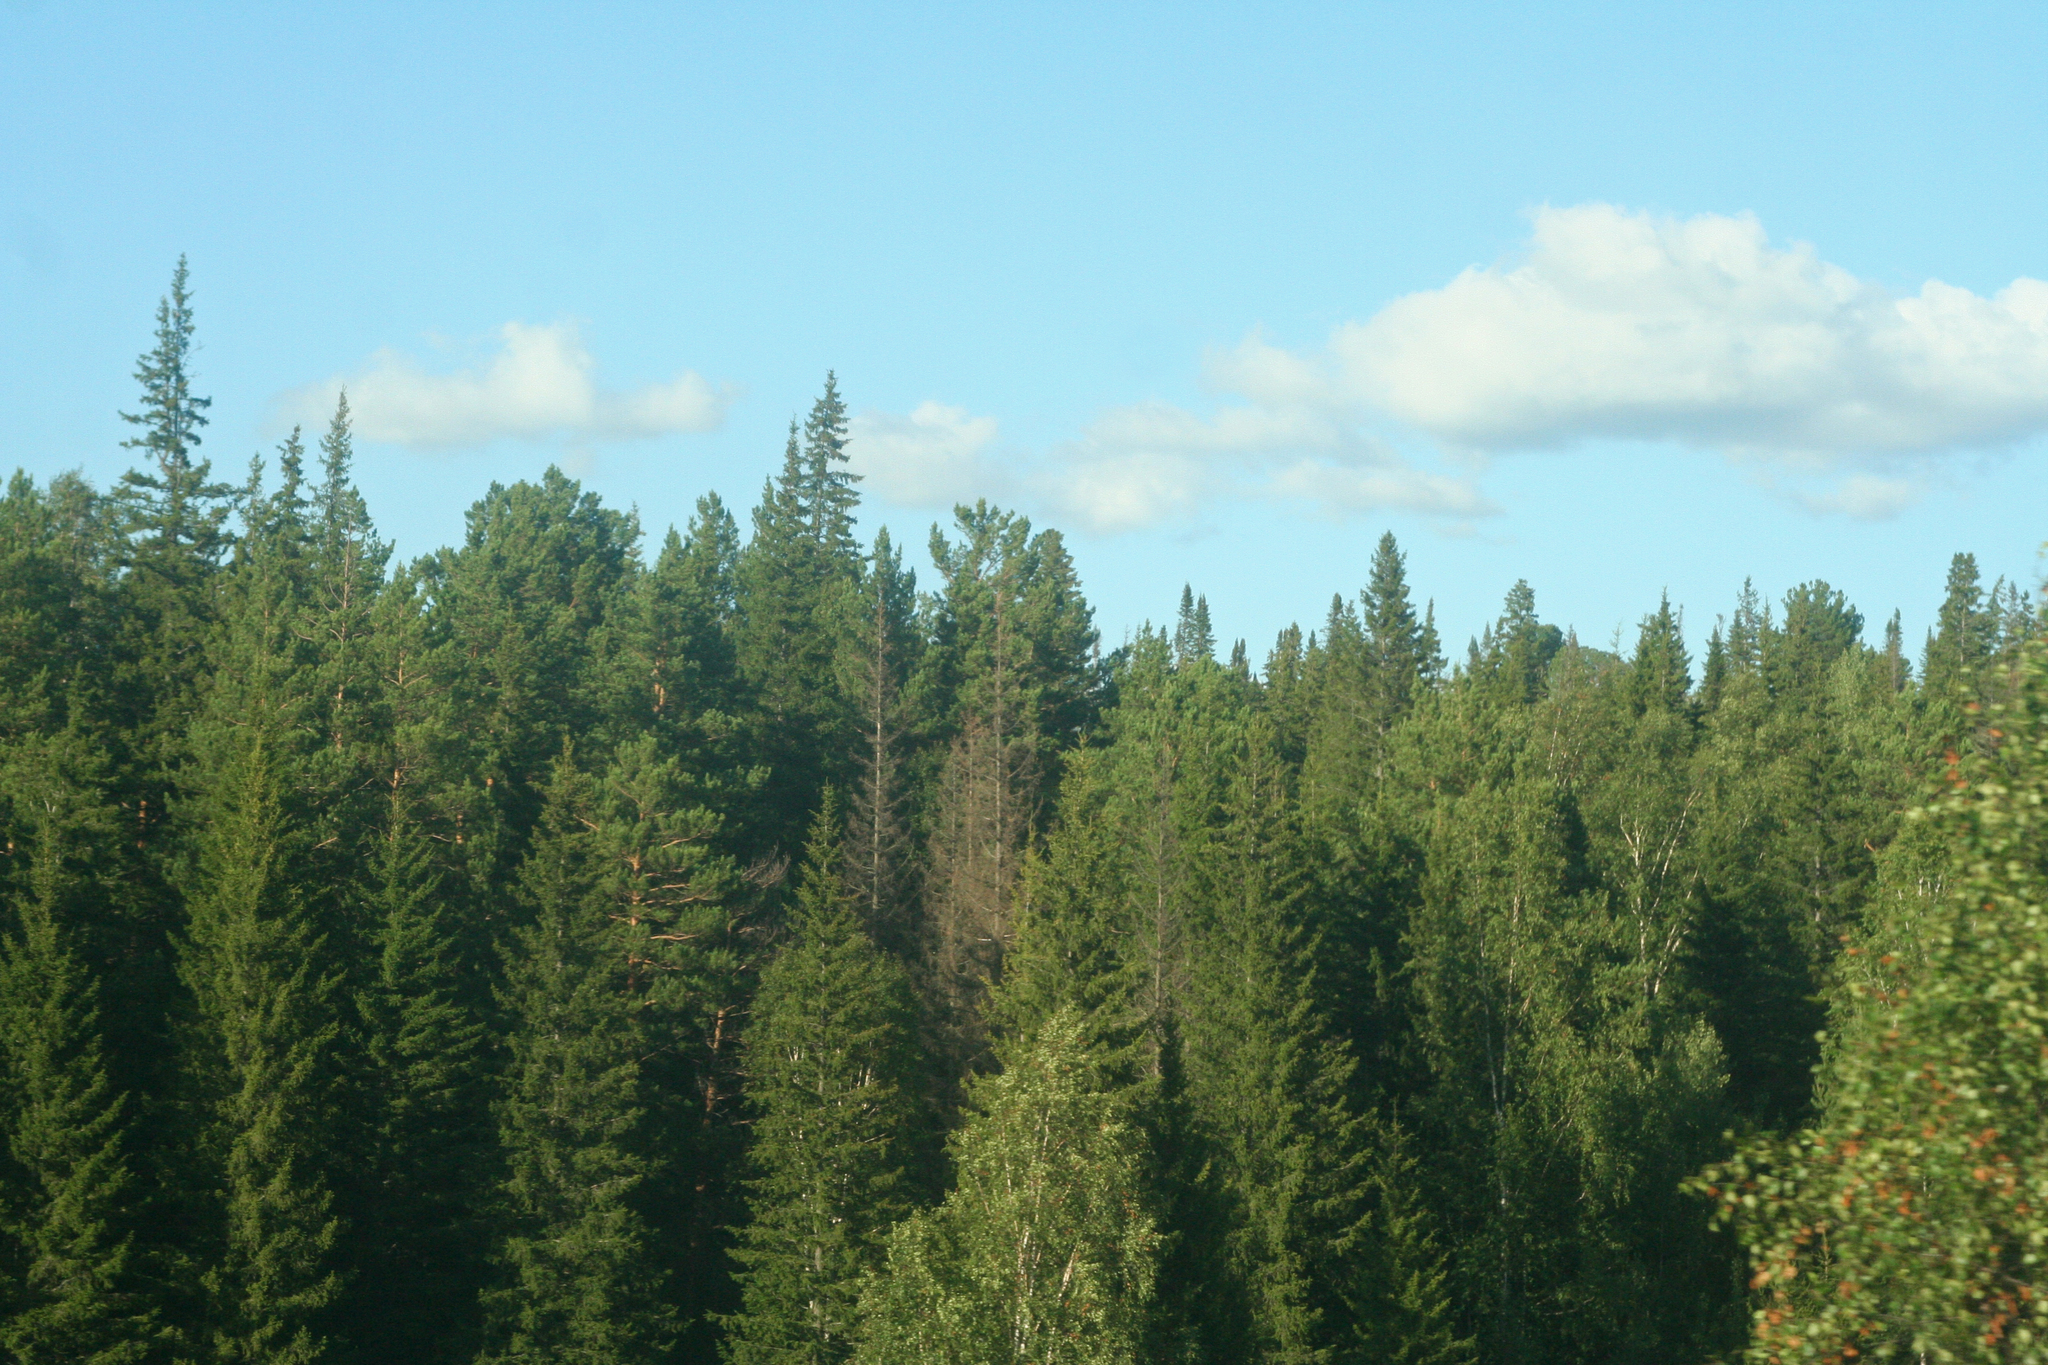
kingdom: Plantae
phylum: Tracheophyta
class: Pinopsida
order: Pinales
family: Pinaceae
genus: Picea
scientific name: Picea obovata
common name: Siberian spruce
